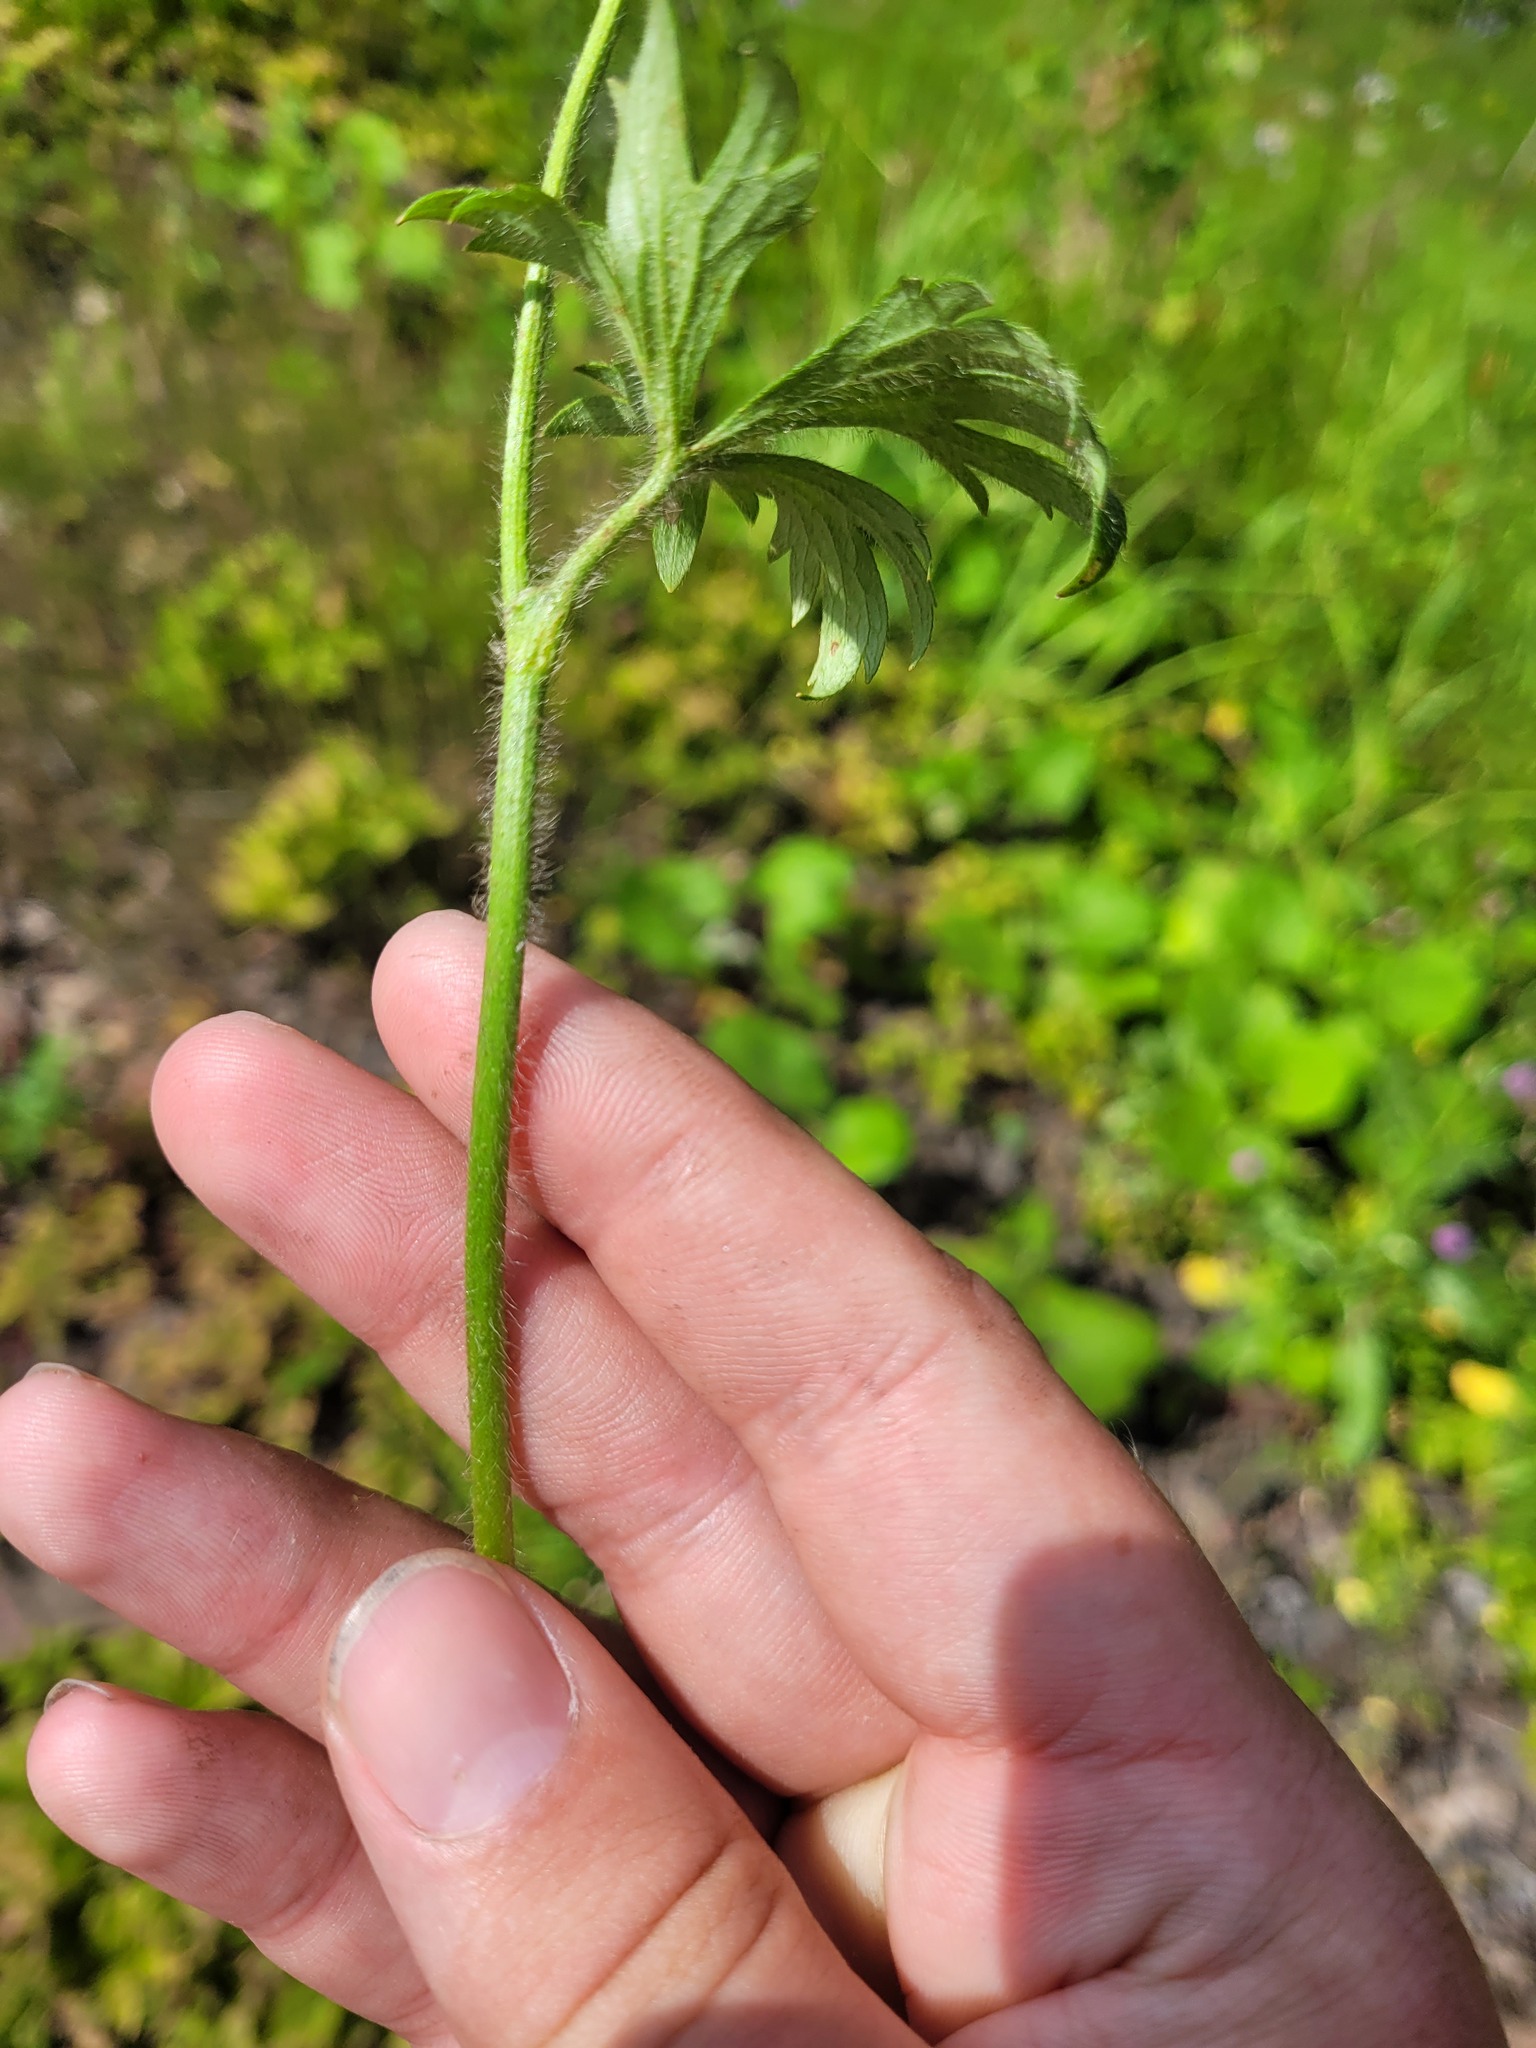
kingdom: Plantae
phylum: Tracheophyta
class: Magnoliopsida
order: Ranunculales
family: Ranunculaceae
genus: Ranunculus
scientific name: Ranunculus polyanthemos
